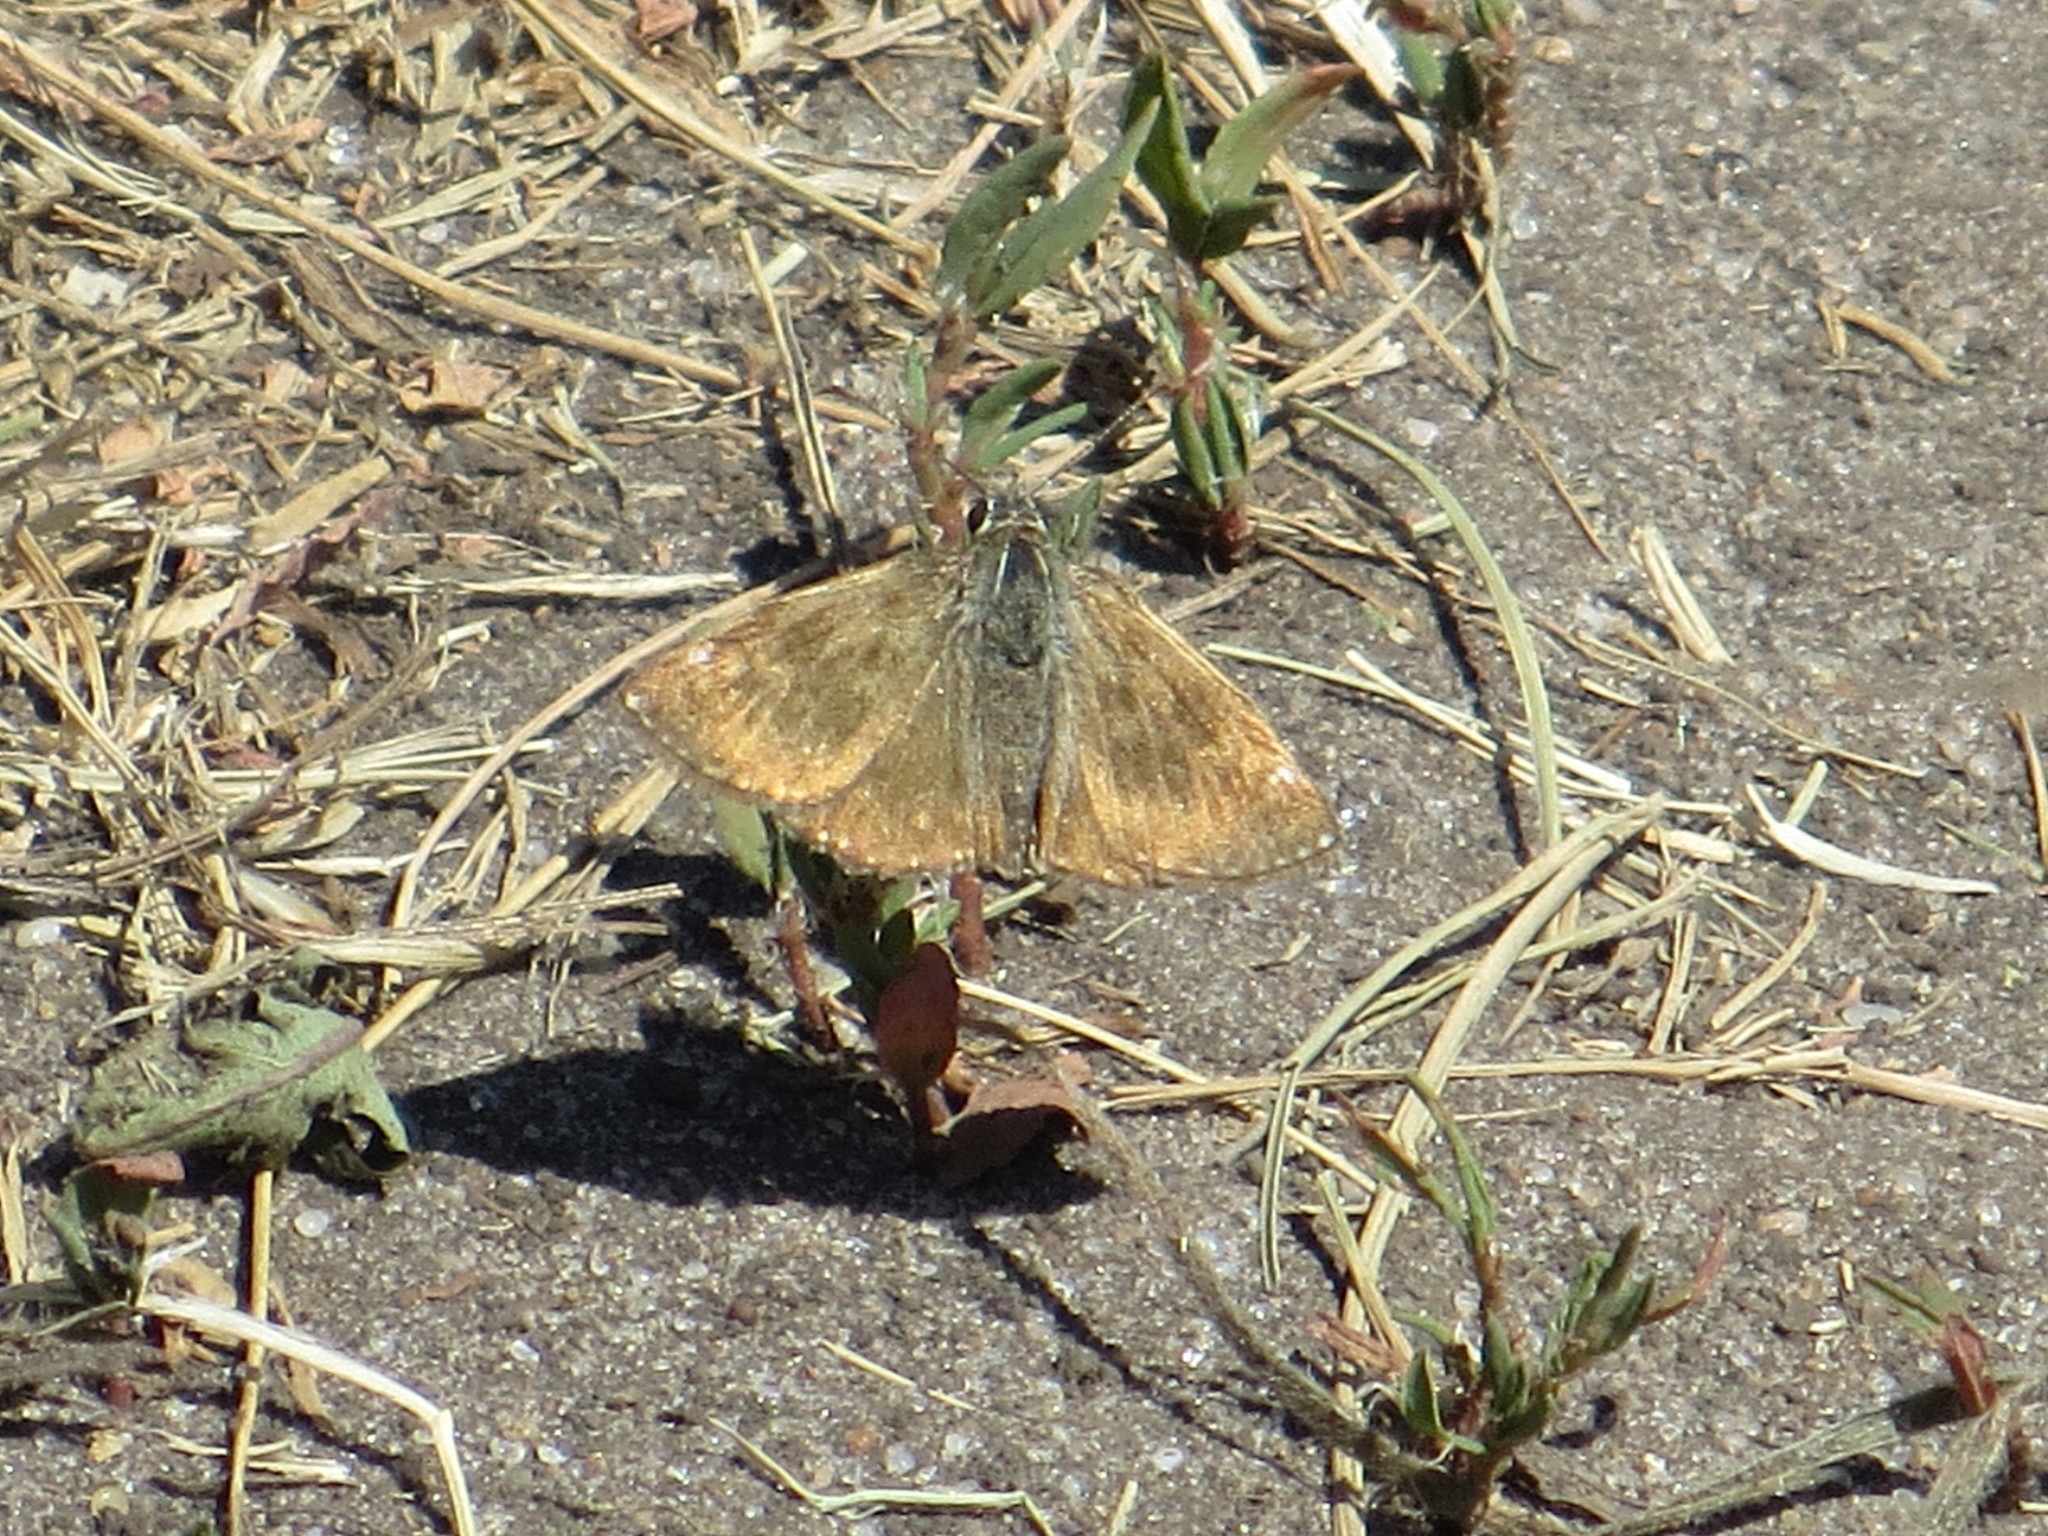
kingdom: Animalia
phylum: Arthropoda
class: Insecta
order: Lepidoptera
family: Hesperiidae
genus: Erynnis
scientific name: Erynnis tages
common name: Dingy skipper
